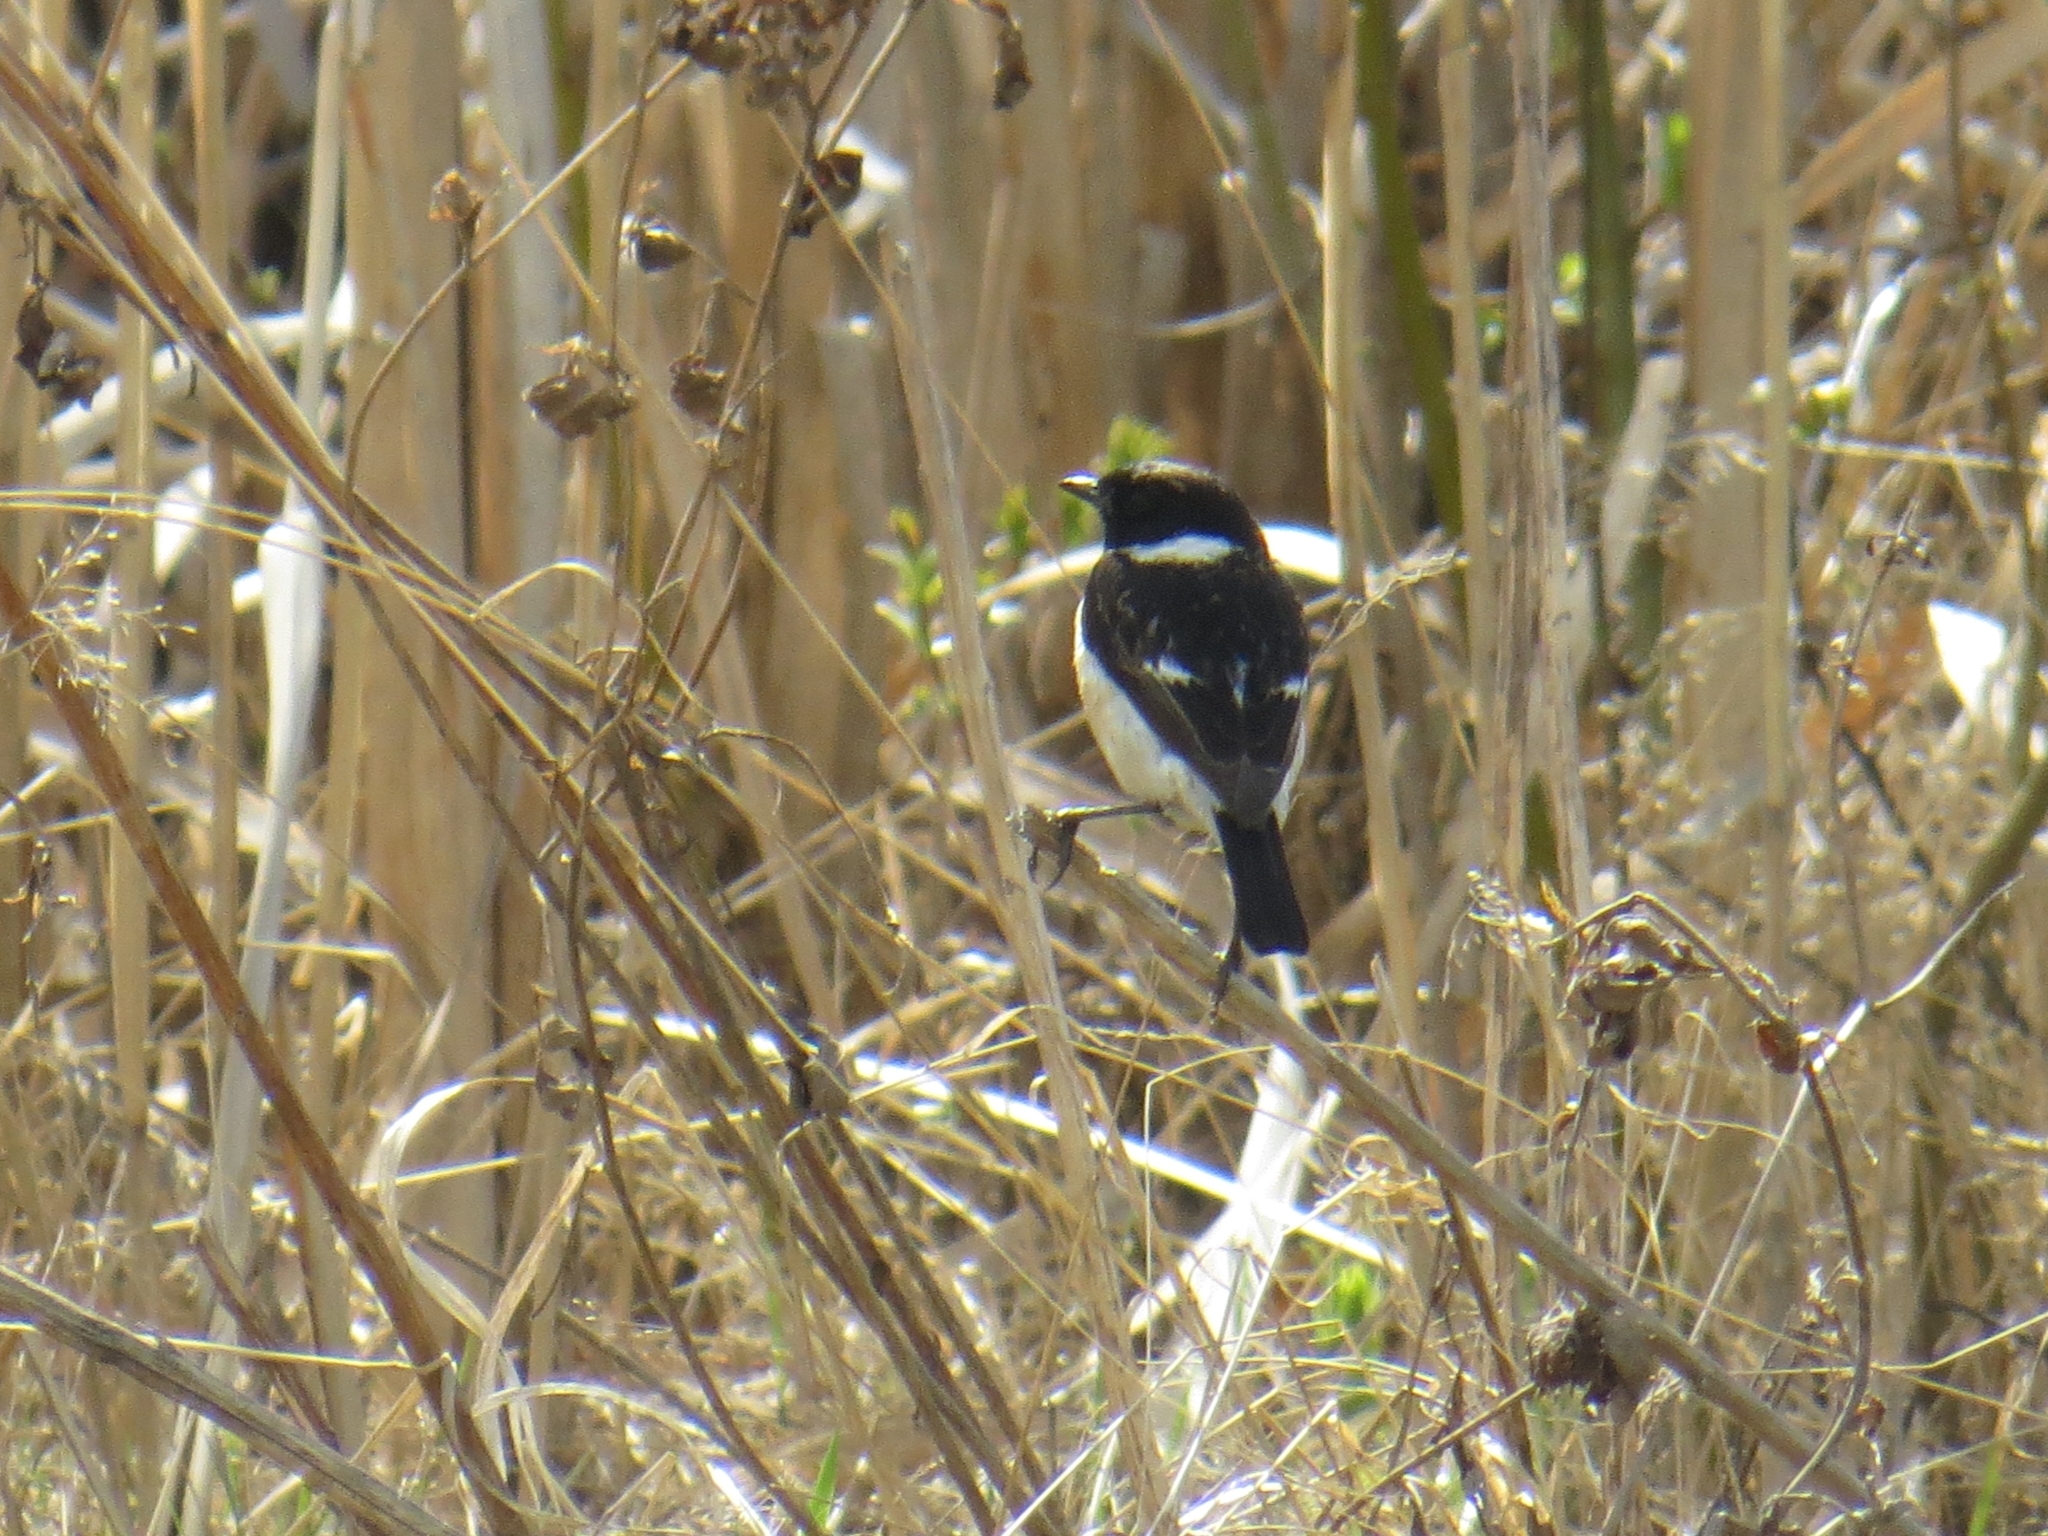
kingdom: Animalia
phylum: Chordata
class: Aves
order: Passeriformes
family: Muscicapidae
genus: Saxicola
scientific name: Saxicola maurus
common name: Siberian stonechat
